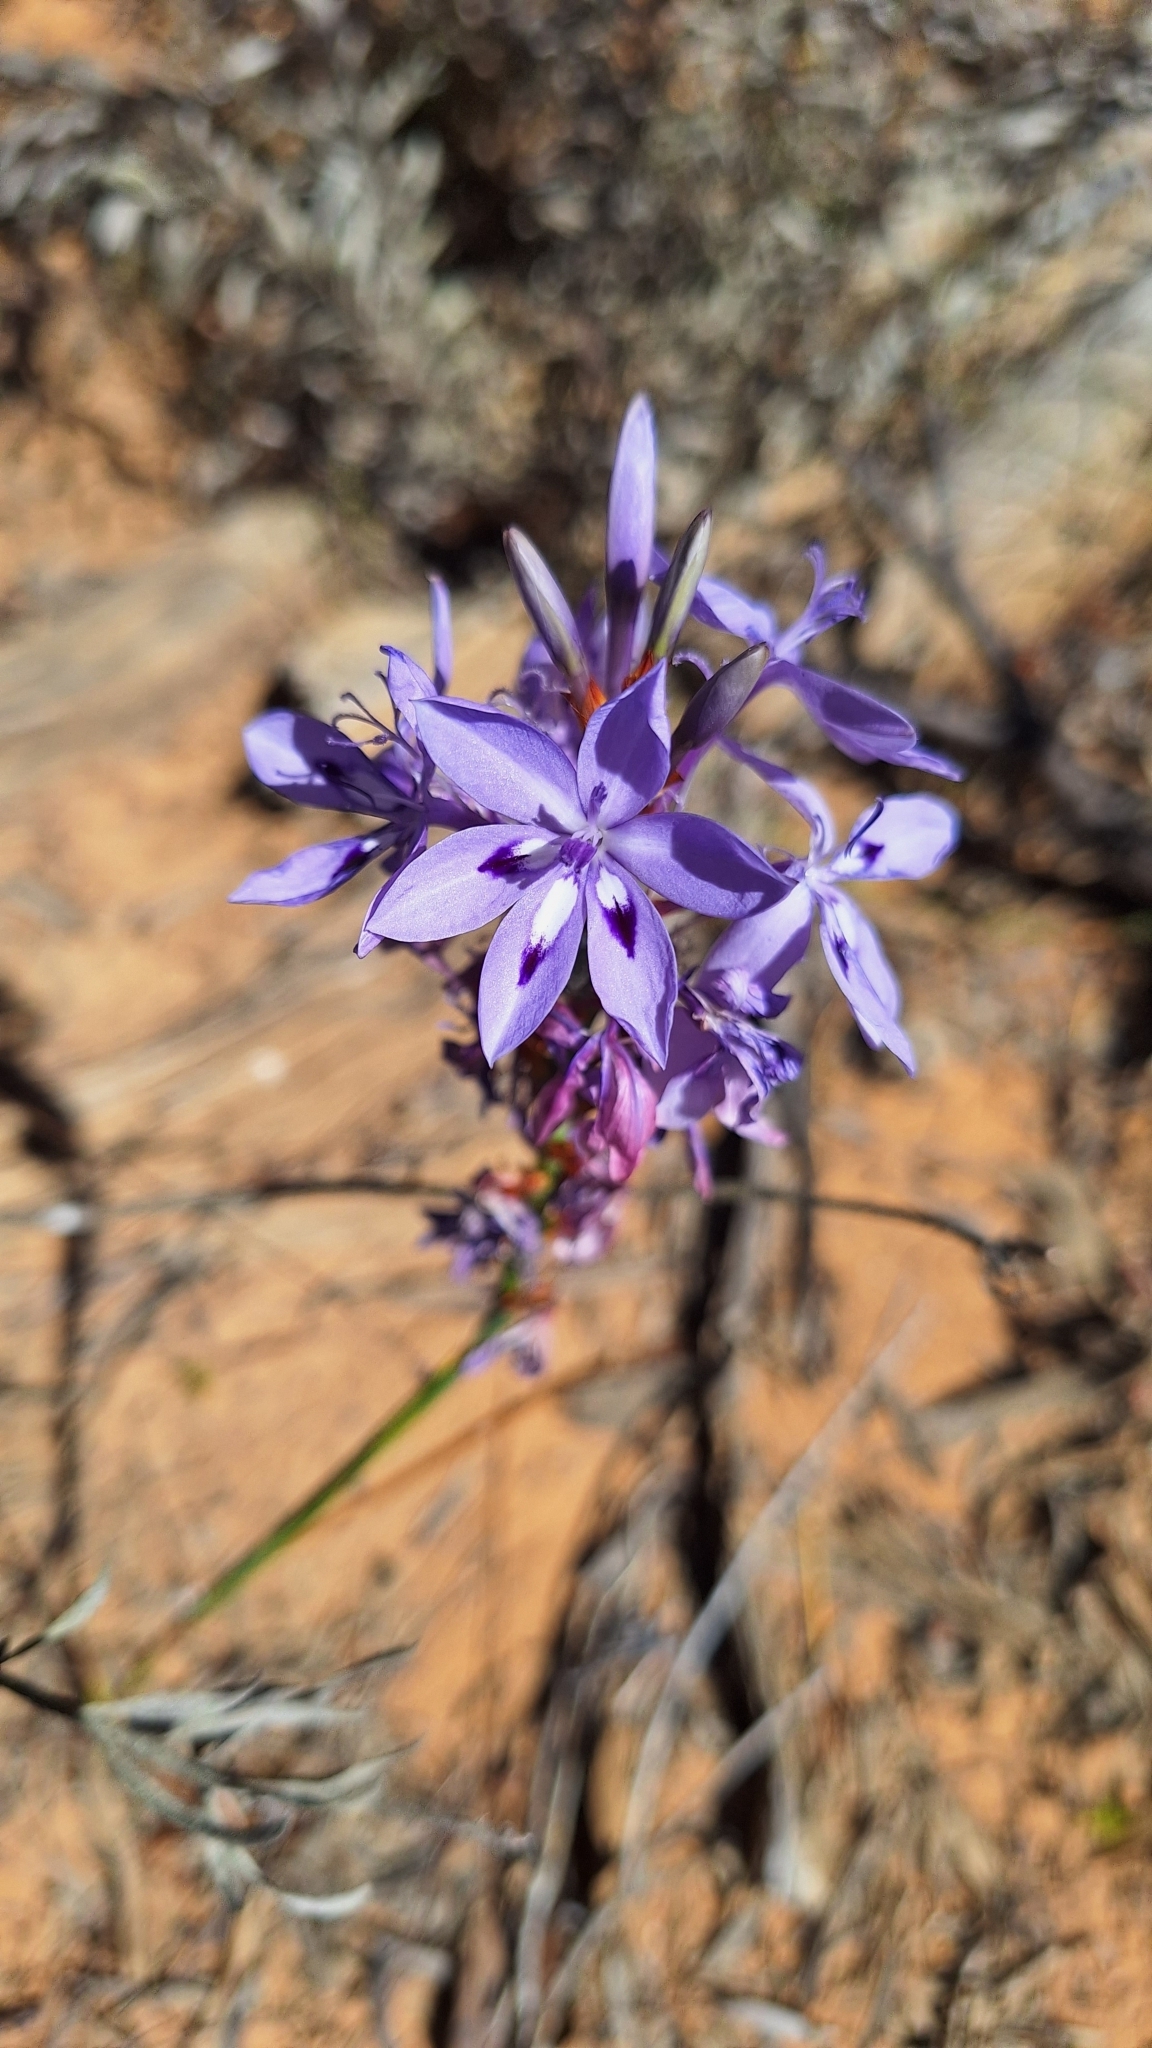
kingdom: Plantae
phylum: Tracheophyta
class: Liliopsida
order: Asparagales
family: Iridaceae
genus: Thereianthus
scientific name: Thereianthus spicatus
